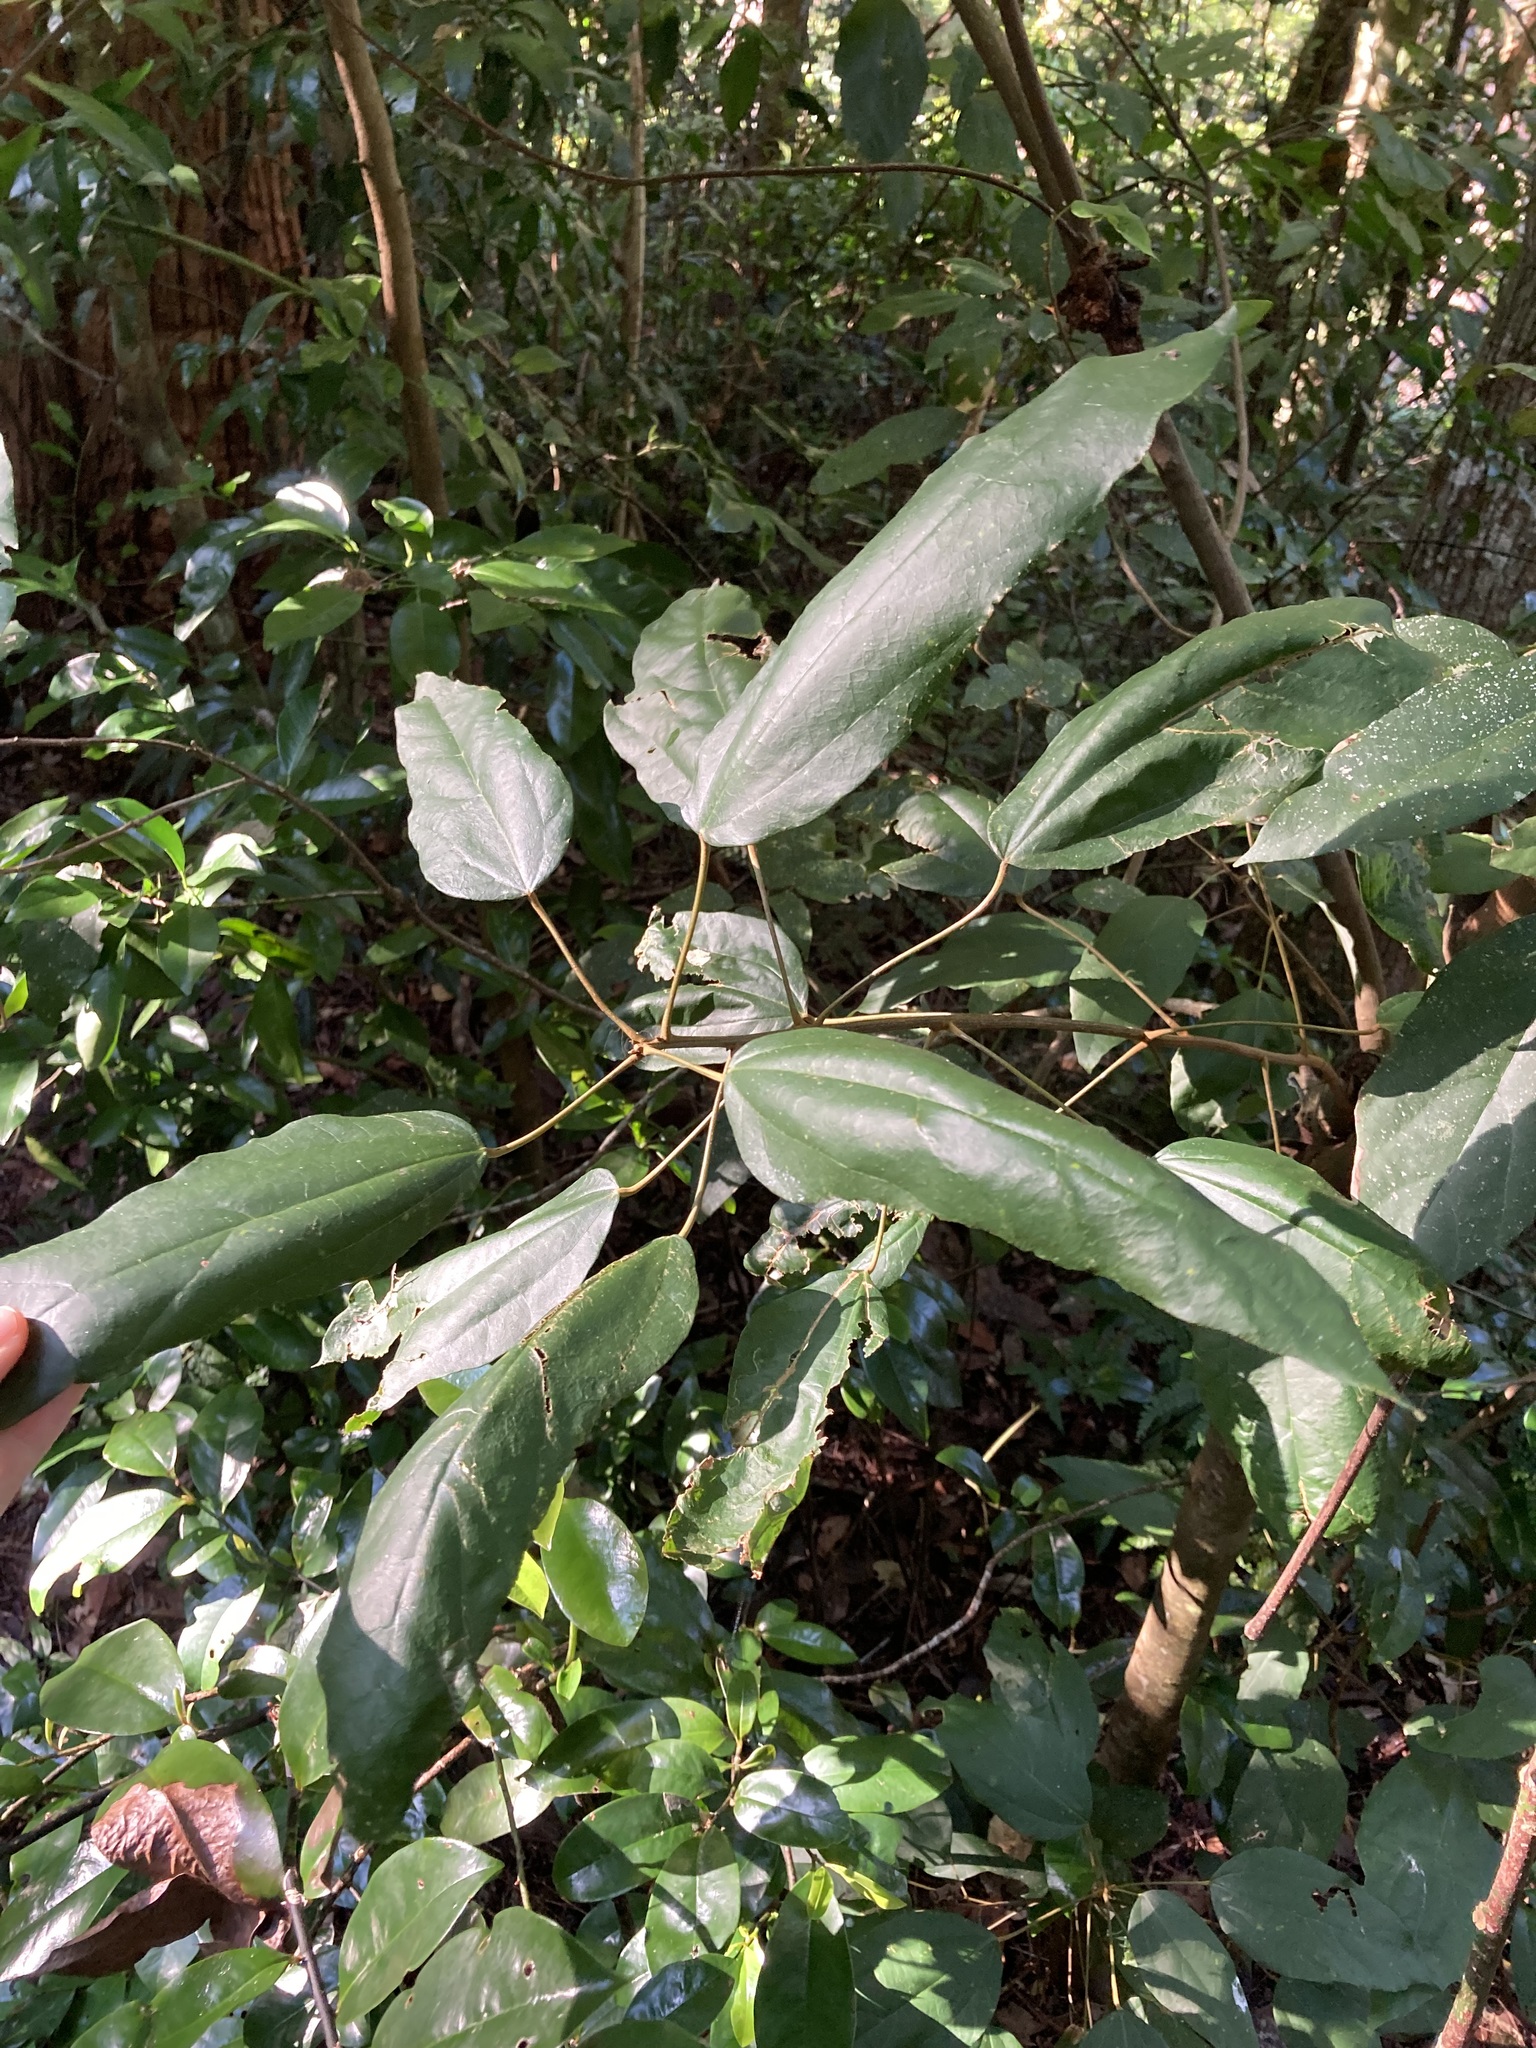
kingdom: Plantae
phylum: Tracheophyta
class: Magnoliopsida
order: Malpighiales
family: Euphorbiaceae
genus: Mallotus
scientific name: Mallotus philippensis
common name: Kamala tree
